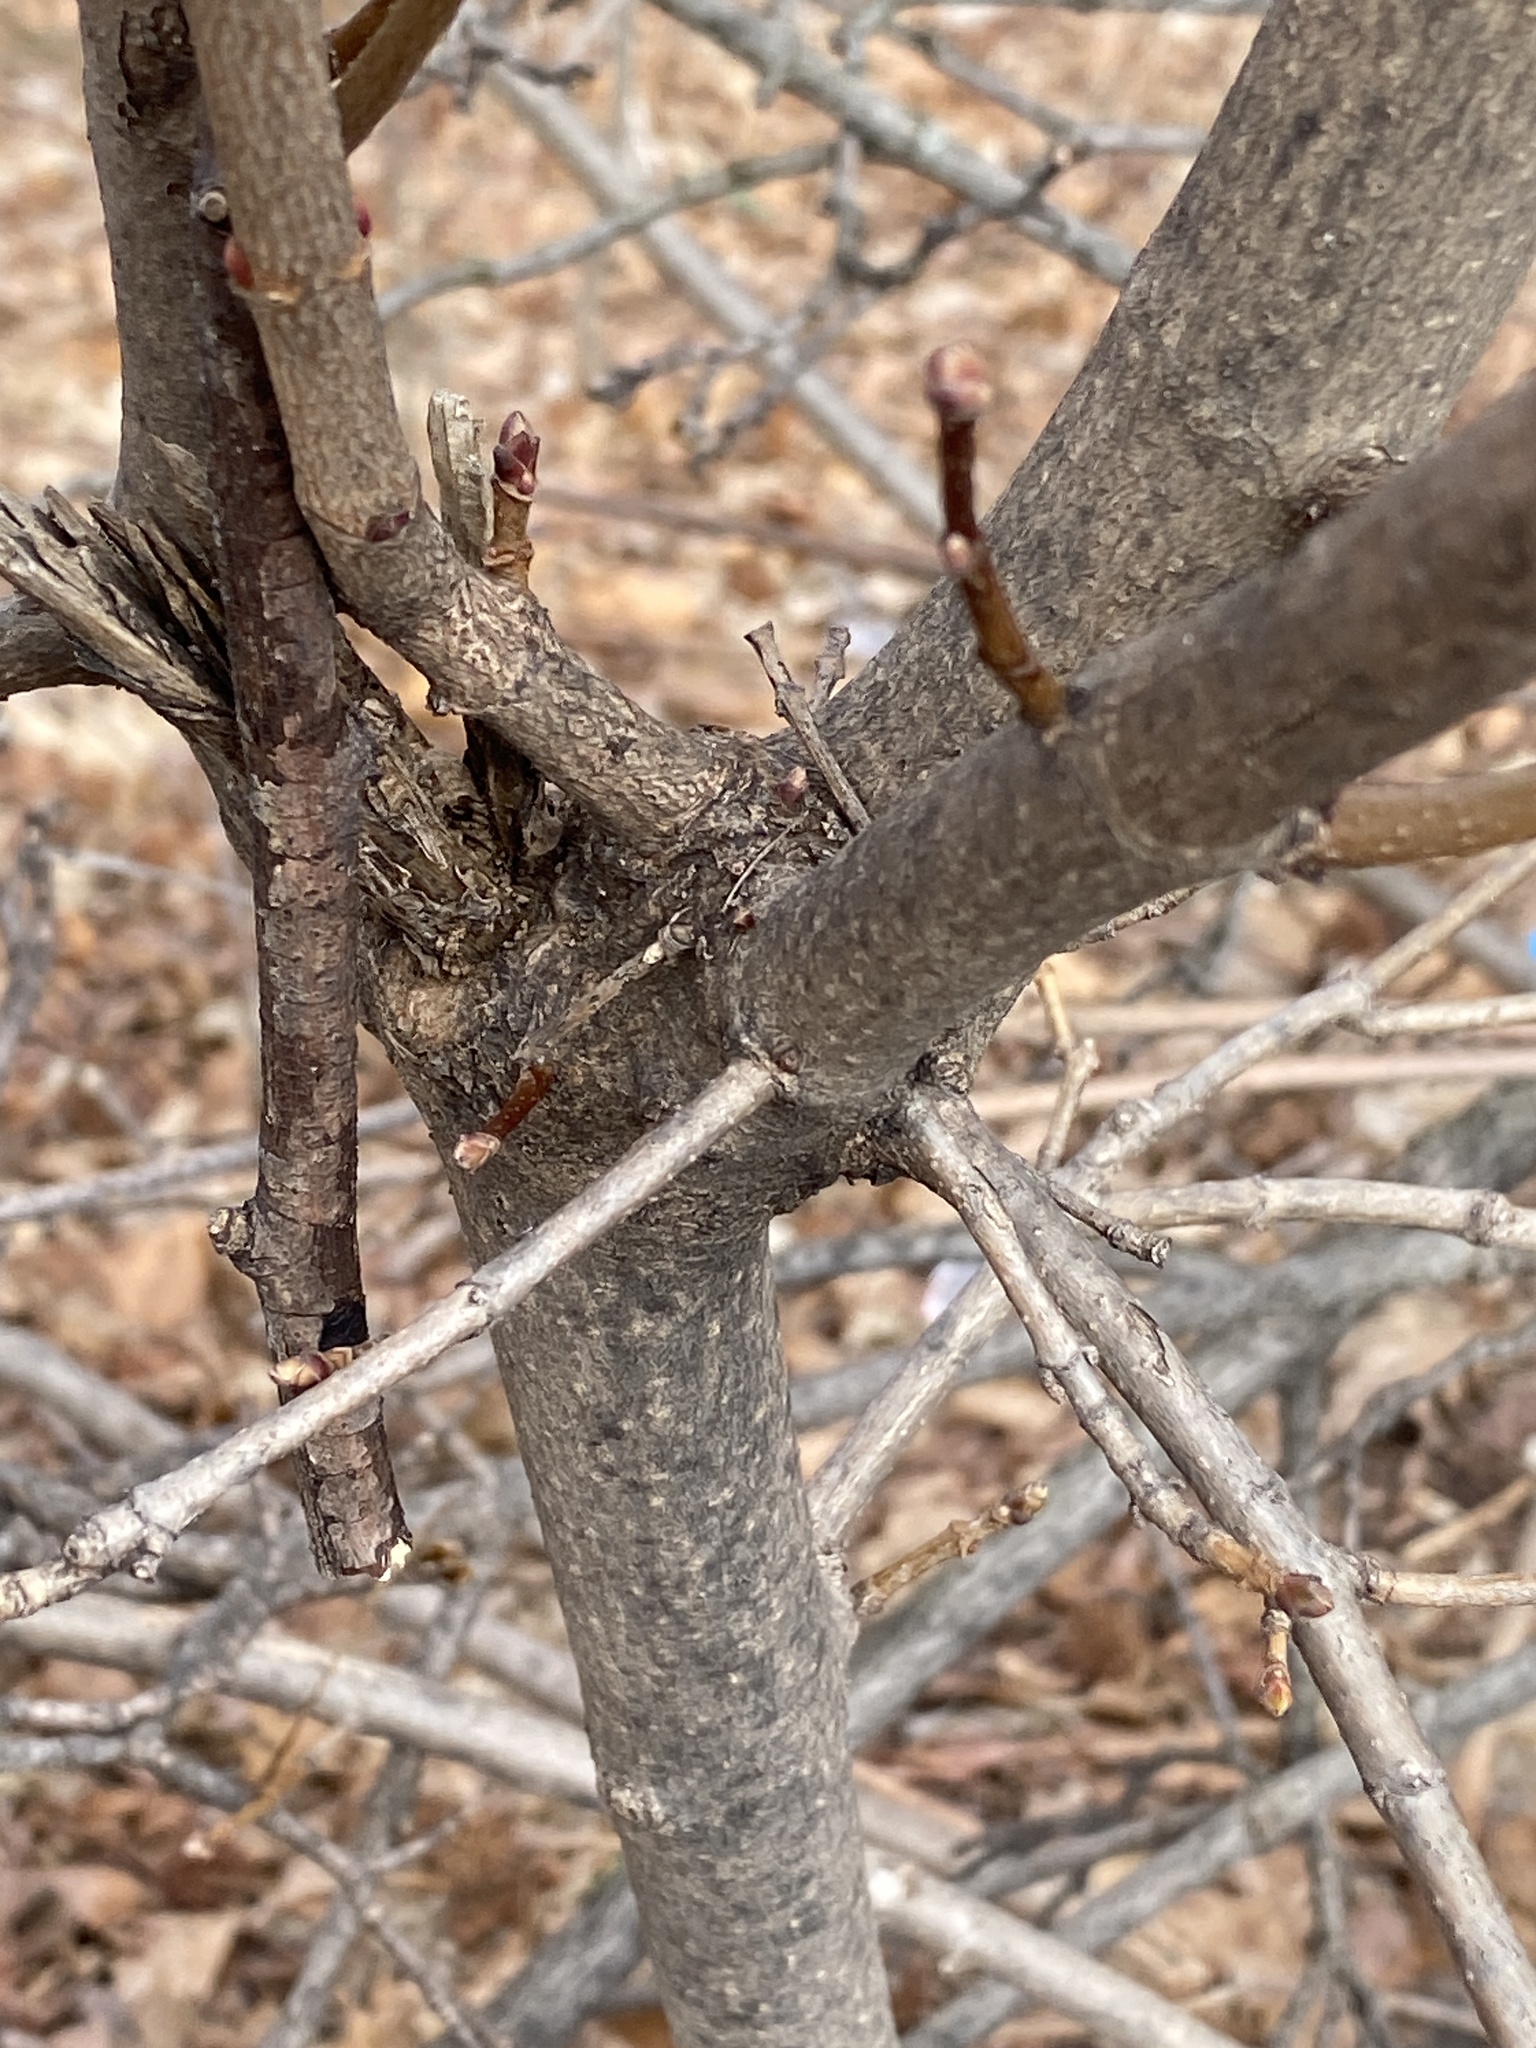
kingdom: Plantae
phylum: Tracheophyta
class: Magnoliopsida
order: Sapindales
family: Sapindaceae
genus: Acer
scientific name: Acer platanoides
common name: Norway maple
